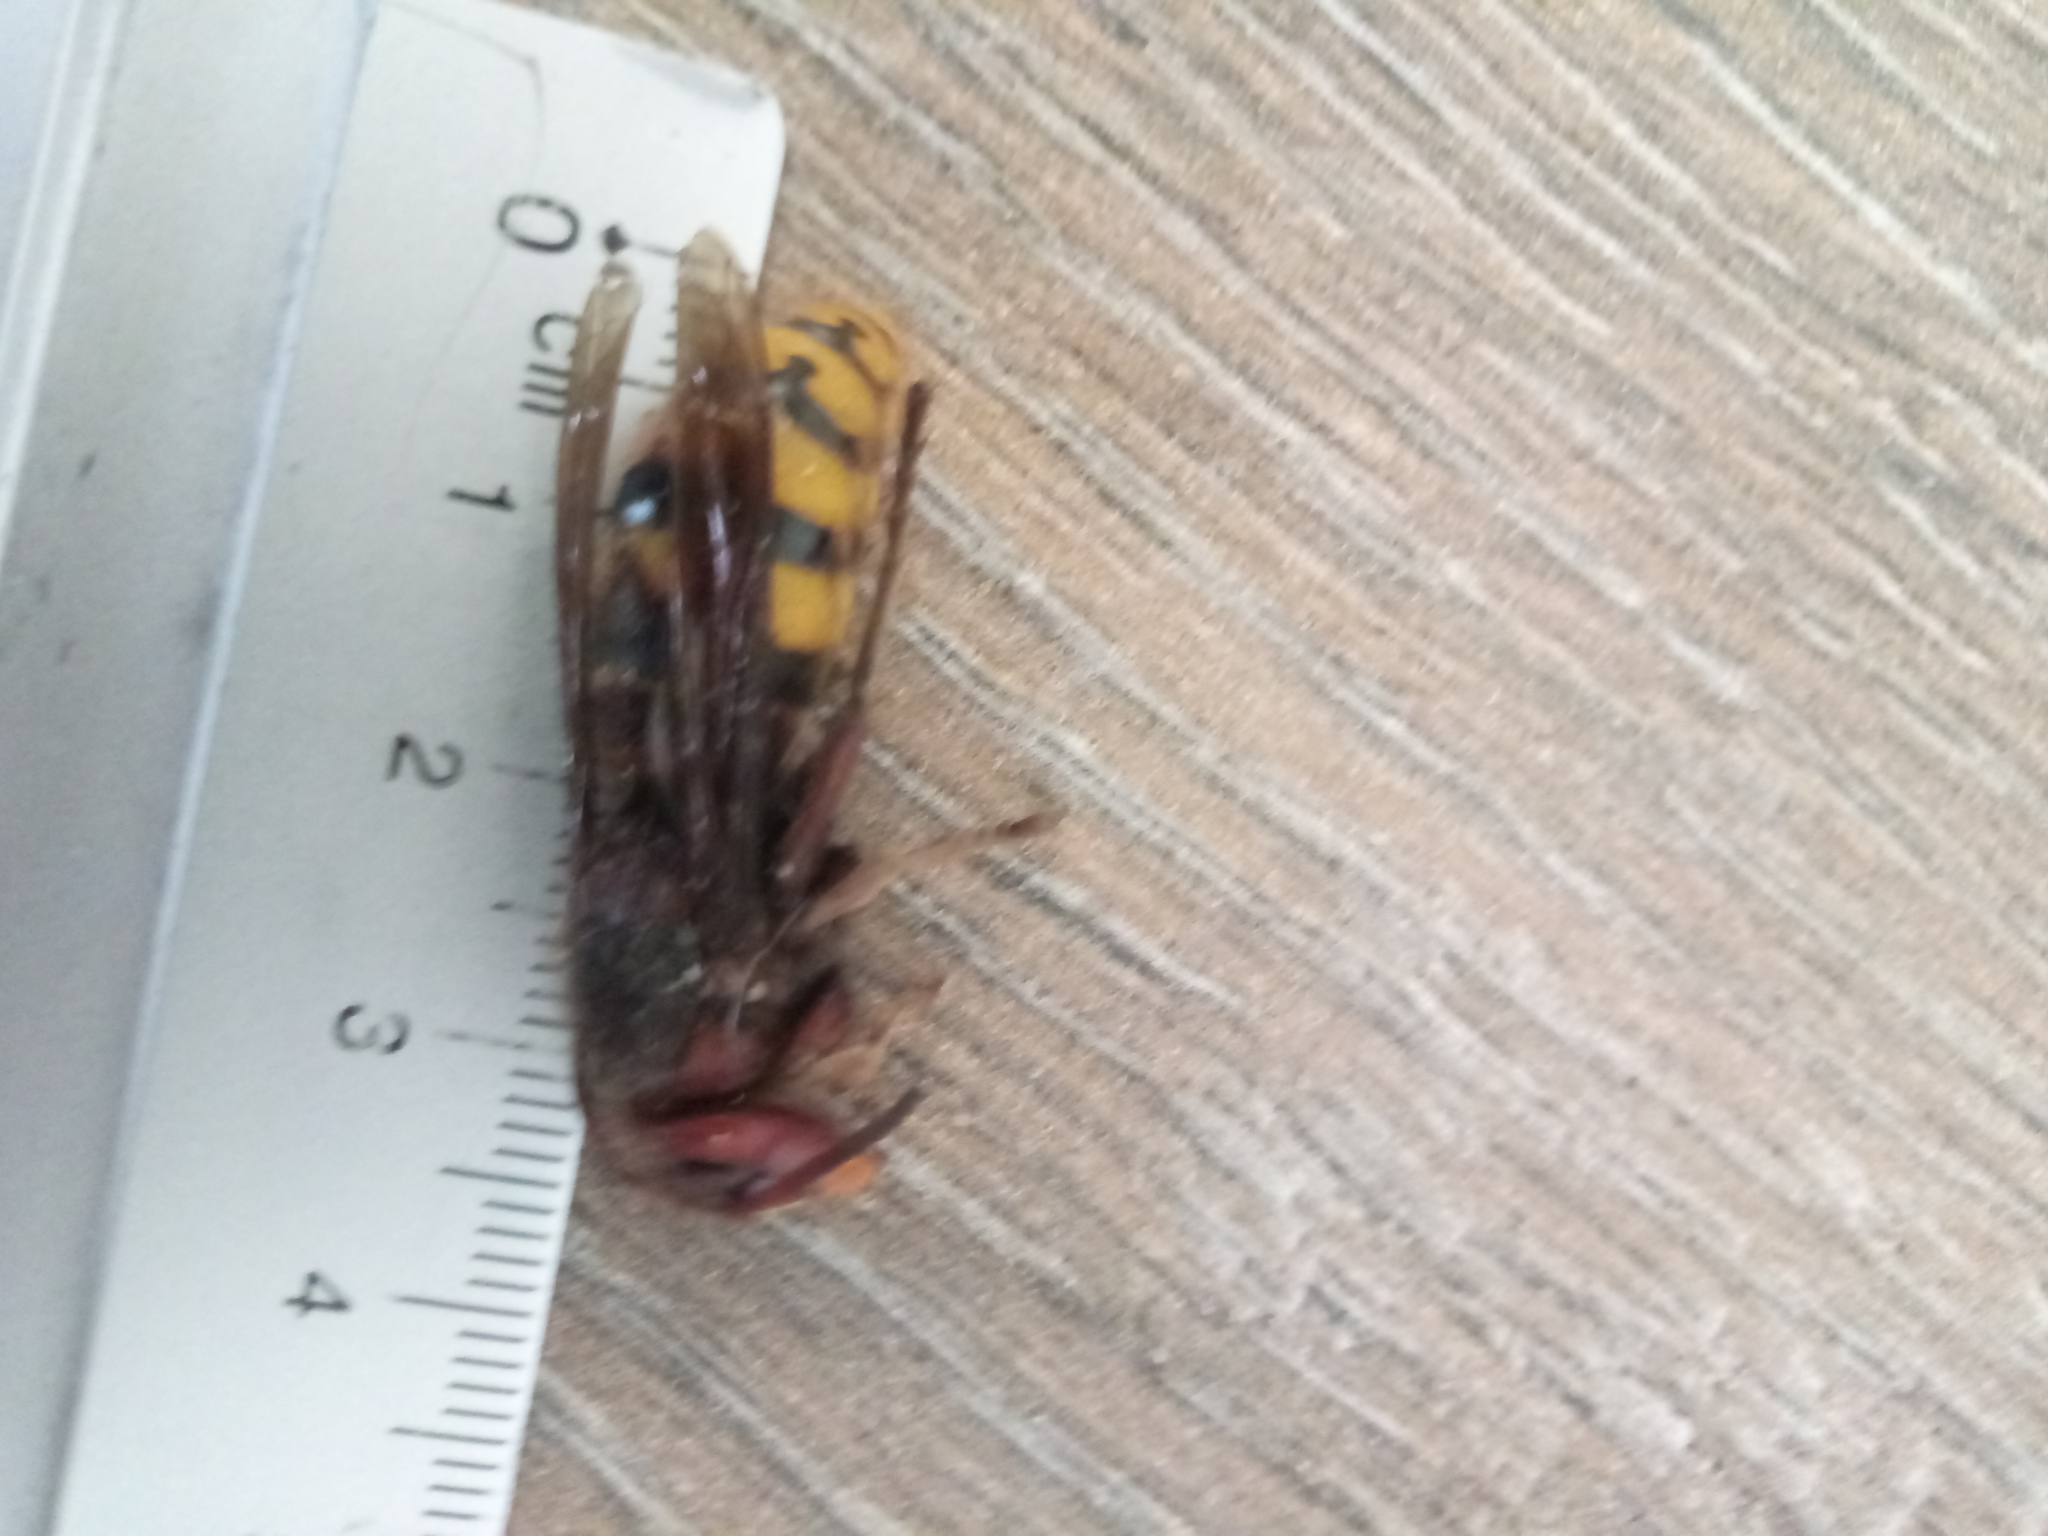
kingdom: Animalia
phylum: Arthropoda
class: Insecta
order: Hymenoptera
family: Vespidae
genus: Vespa
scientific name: Vespa crabro
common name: Hornet
